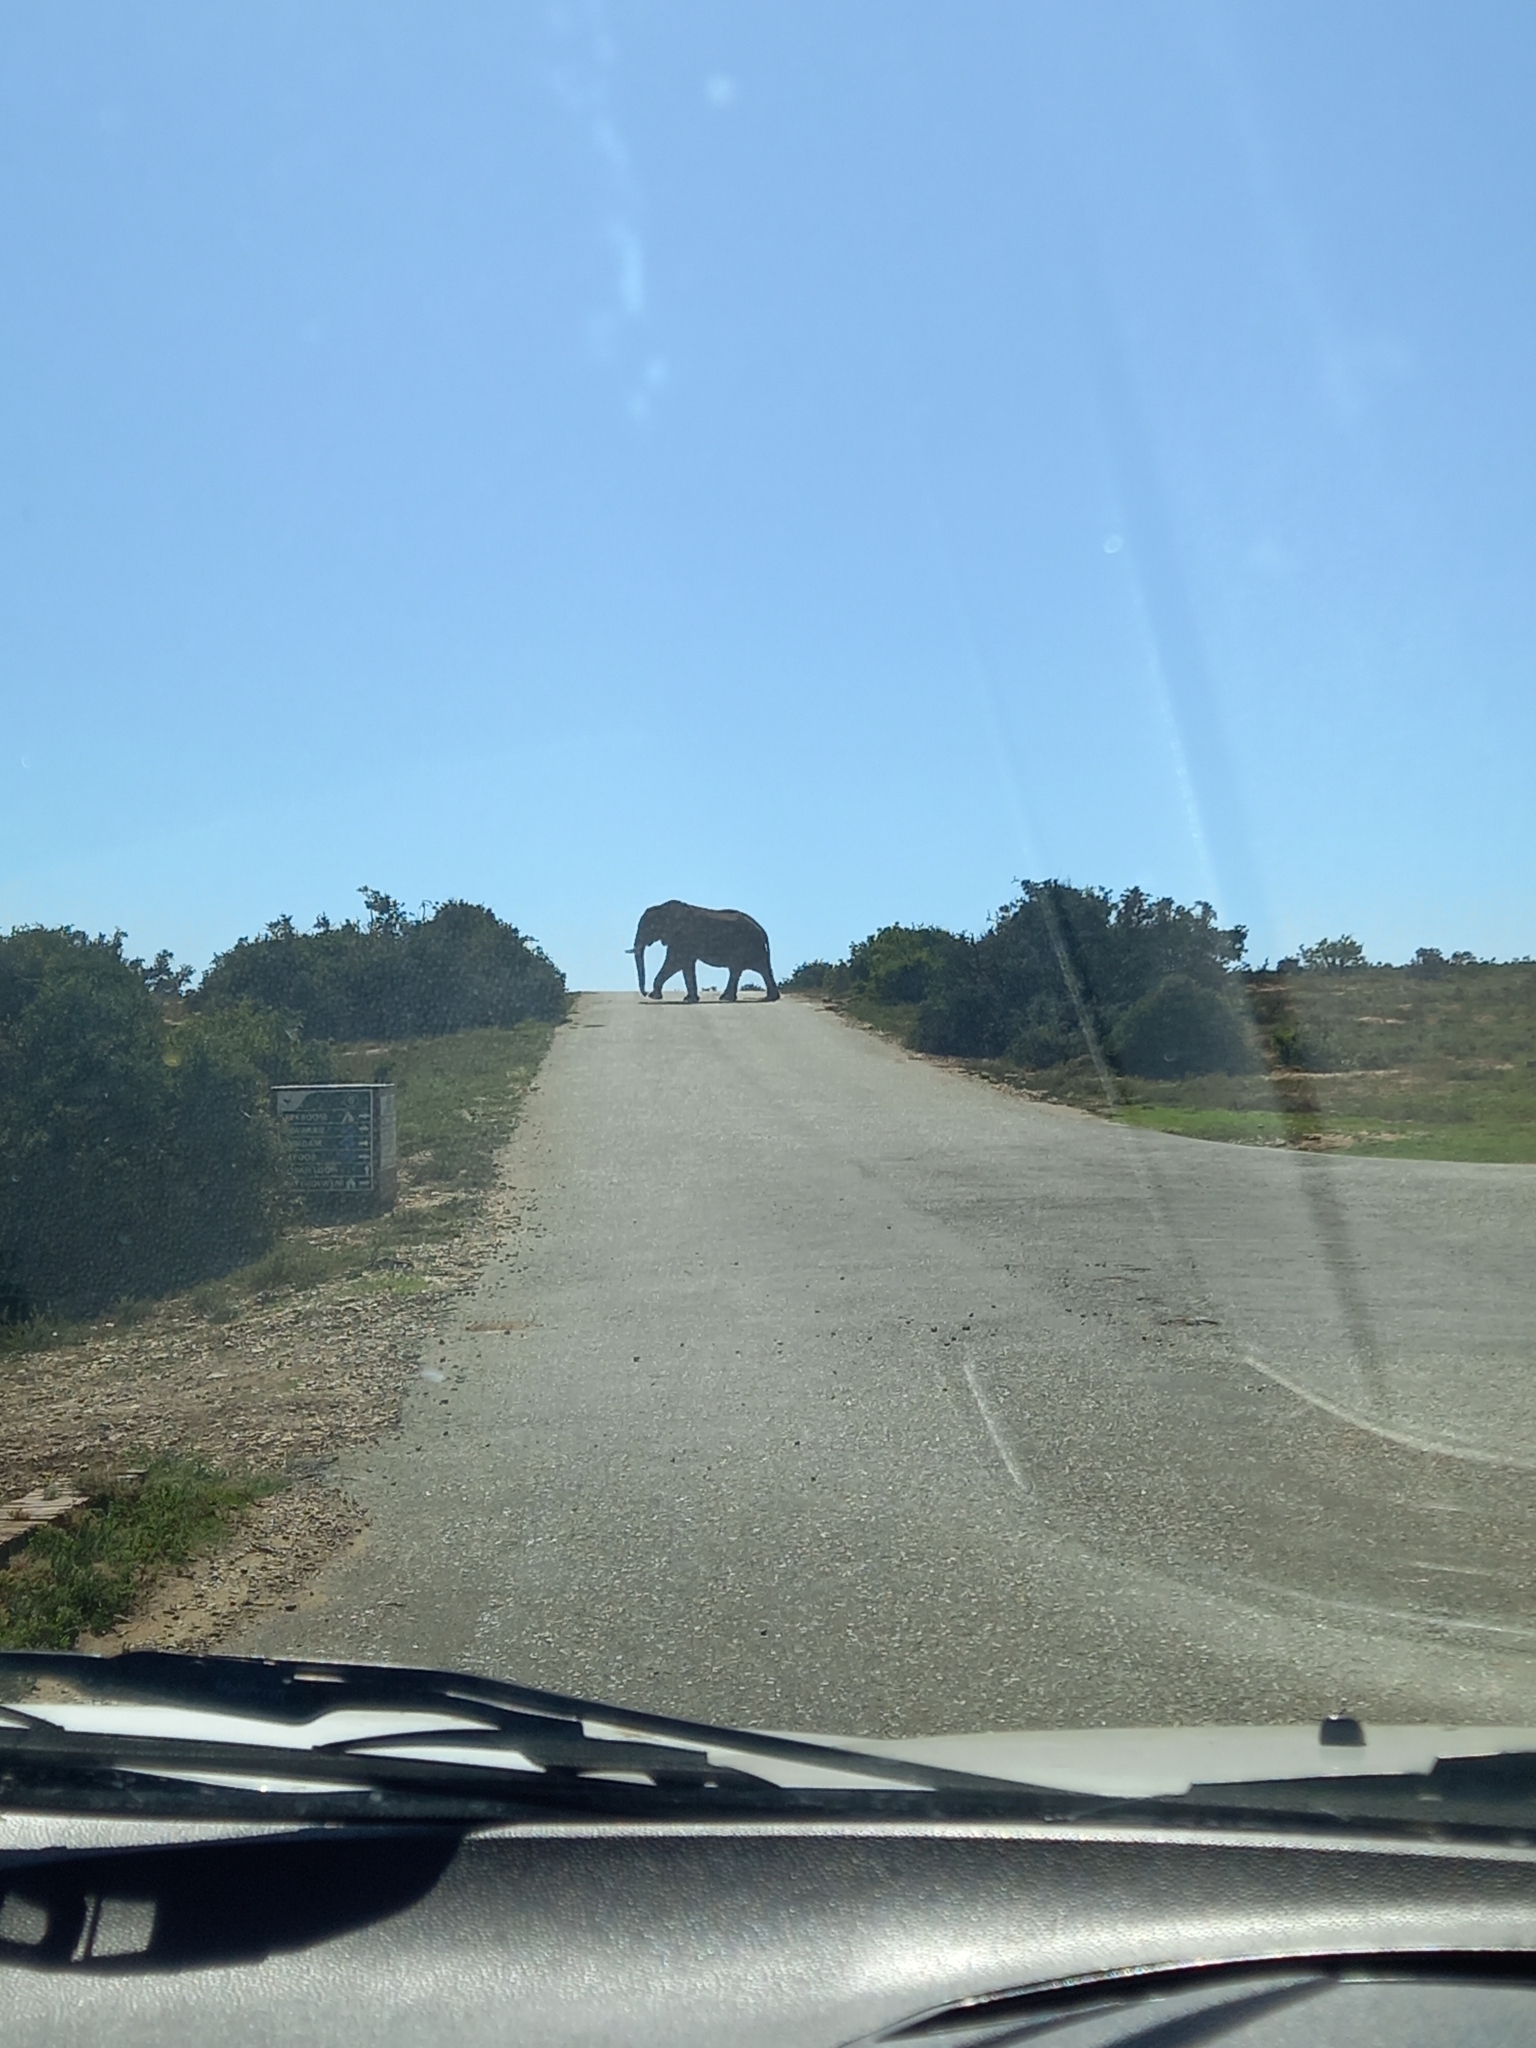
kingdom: Animalia
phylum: Chordata
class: Mammalia
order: Proboscidea
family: Elephantidae
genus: Loxodonta
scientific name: Loxodonta africana
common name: African elephant
